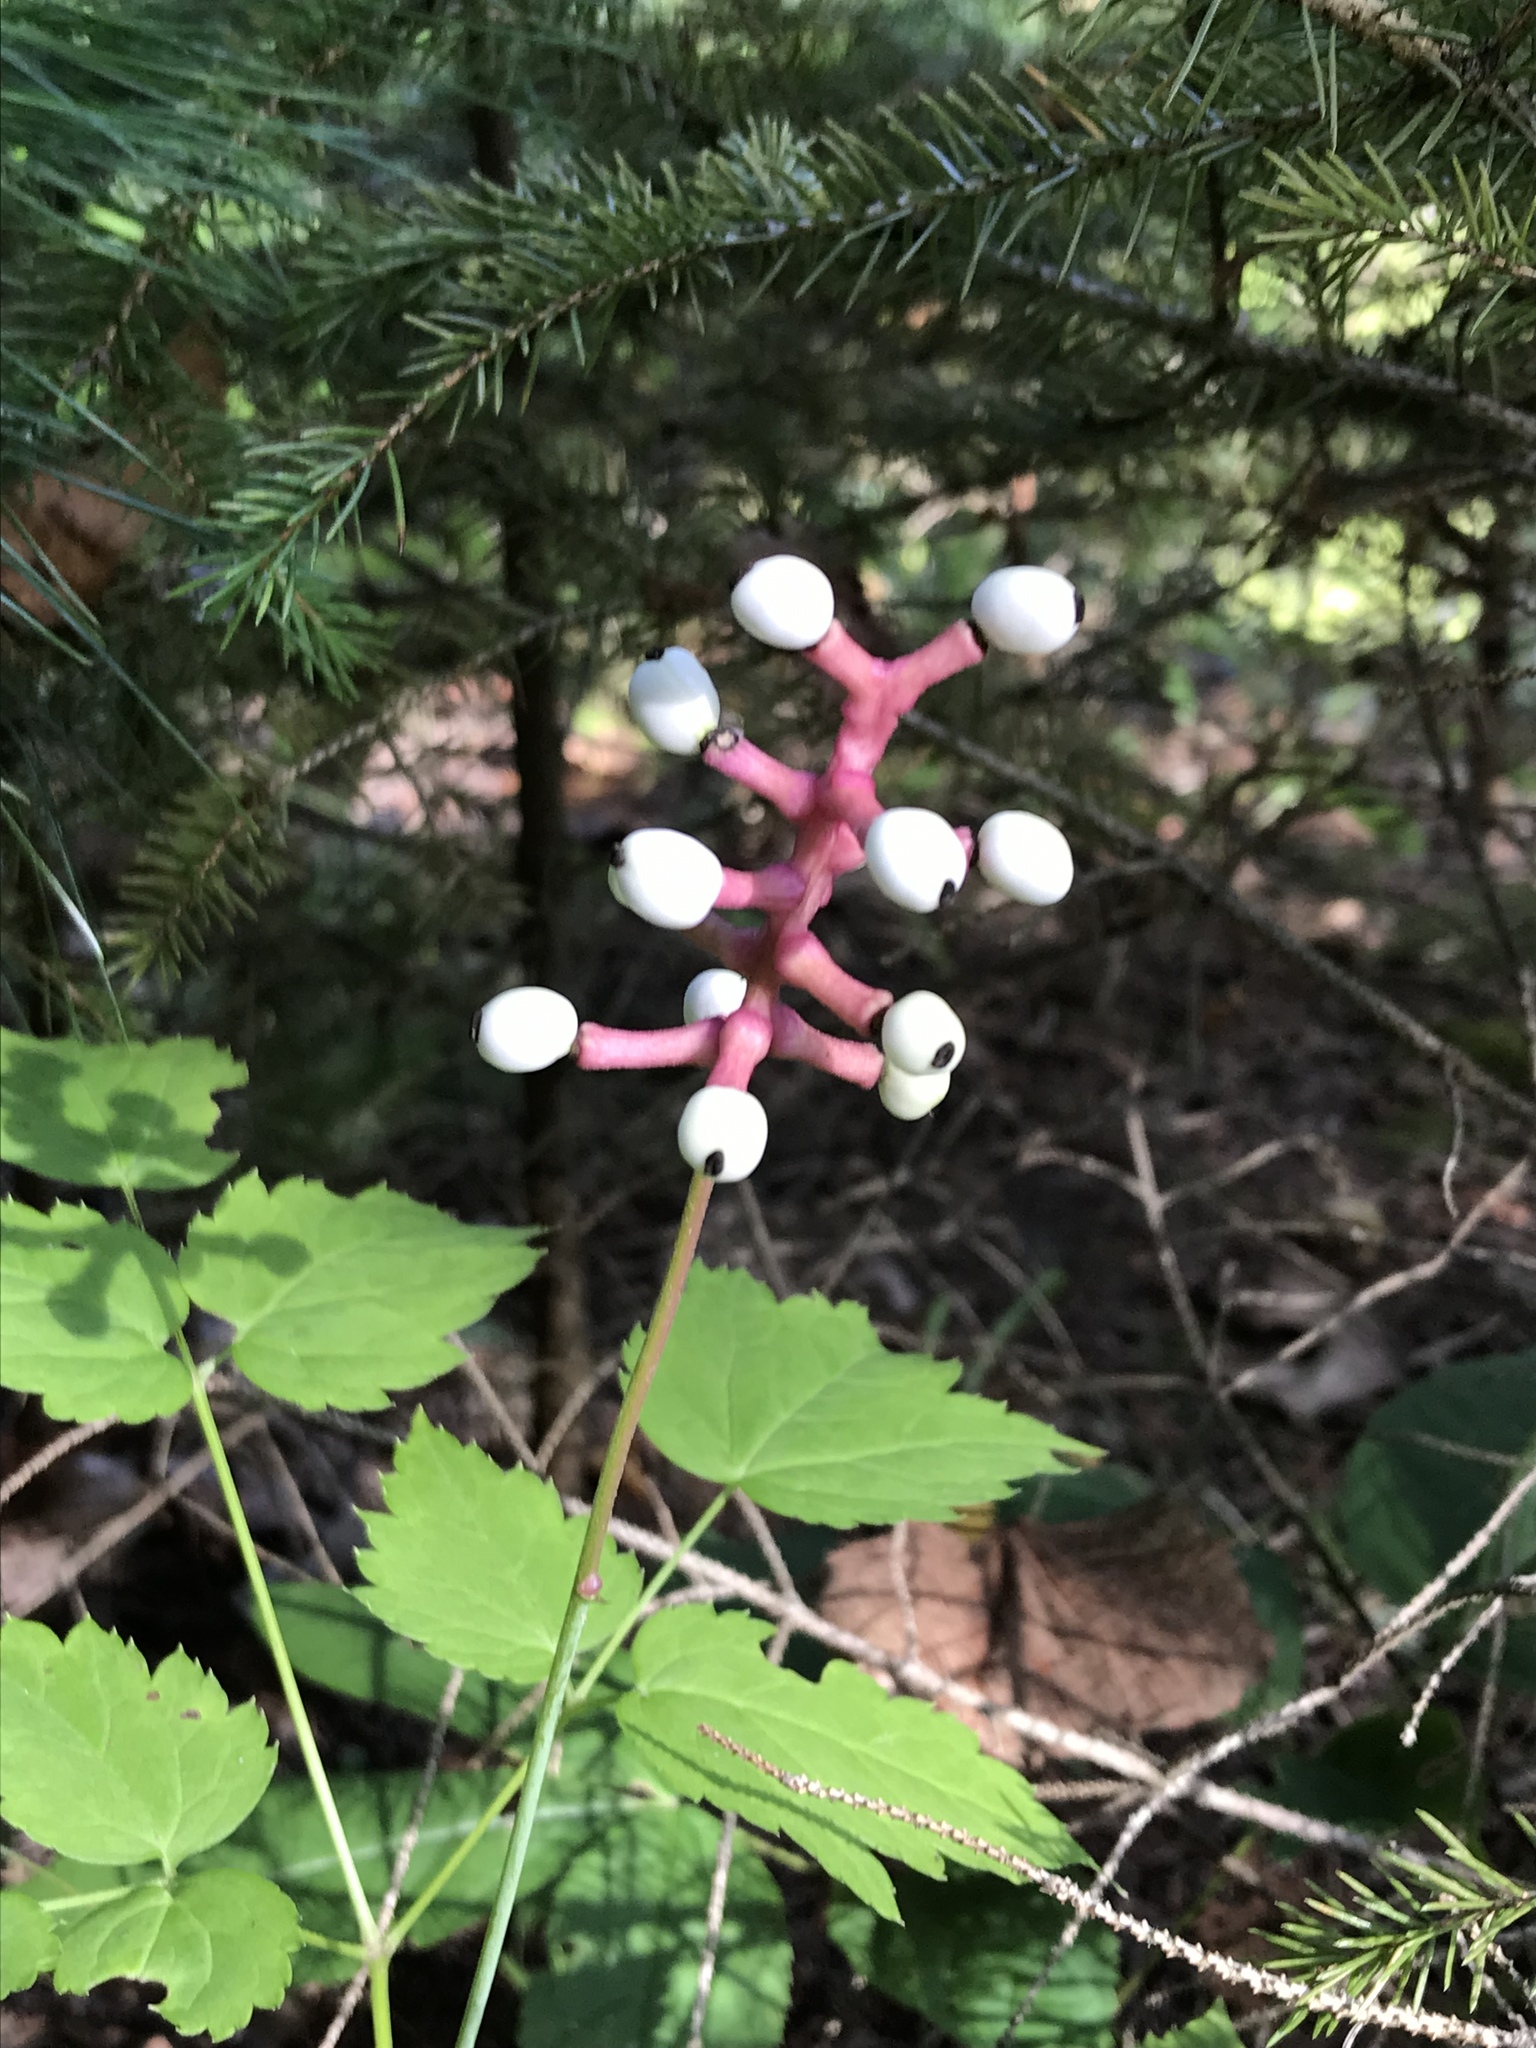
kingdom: Plantae
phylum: Tracheophyta
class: Magnoliopsida
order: Ranunculales
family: Ranunculaceae
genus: Actaea
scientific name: Actaea pachypoda
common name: Doll's-eyes
